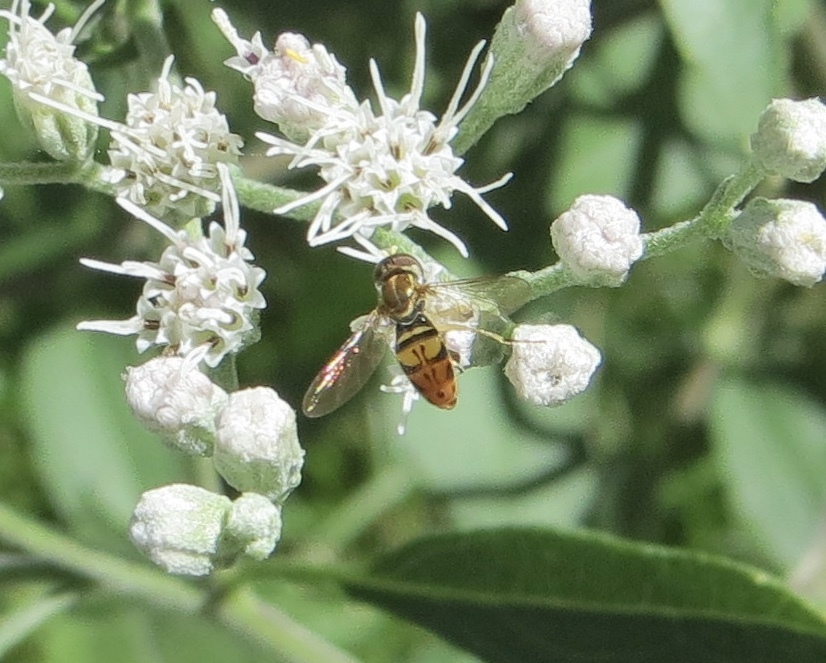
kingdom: Animalia
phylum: Arthropoda
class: Insecta
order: Diptera
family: Syrphidae
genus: Toxomerus
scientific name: Toxomerus marginatus
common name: Syrphid fly
